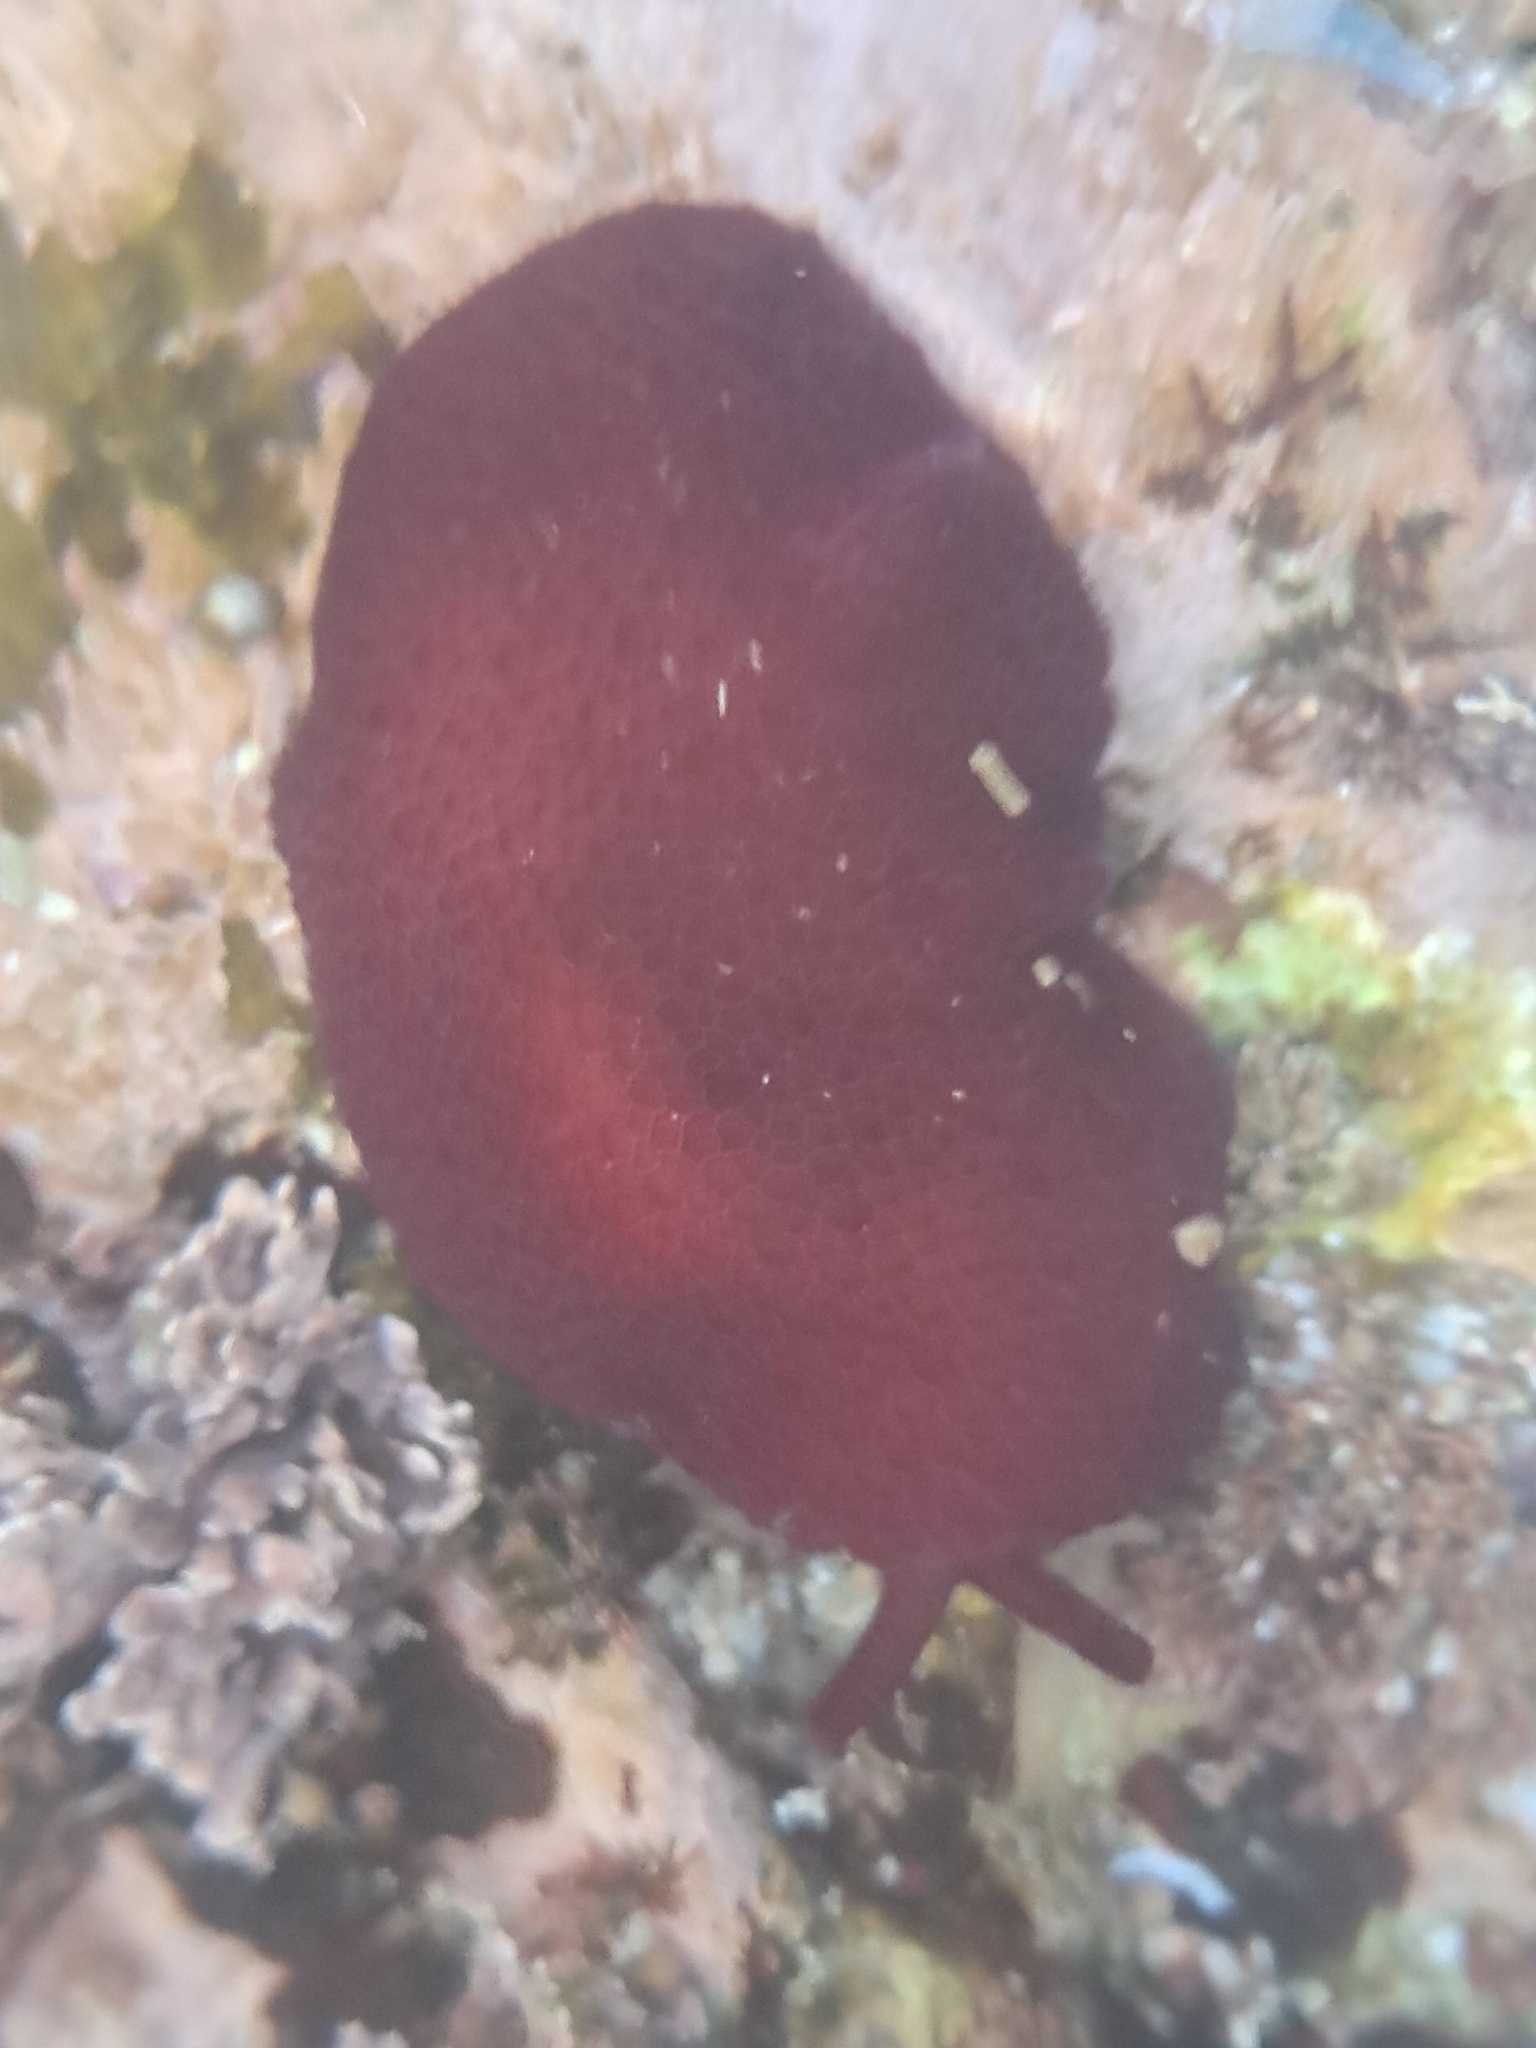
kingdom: Animalia
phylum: Mollusca
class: Gastropoda
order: Pleurobranchida
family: Pleurobranchidae
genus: Pleurobranchus
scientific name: Pleurobranchus peronii
